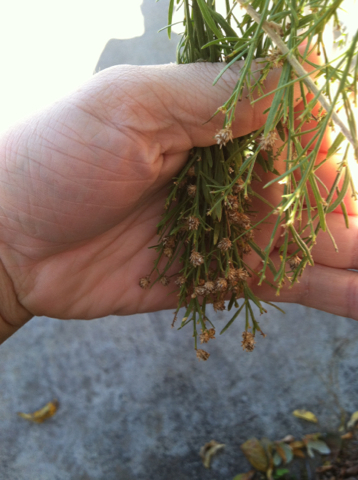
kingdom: Plantae
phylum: Tracheophyta
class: Magnoliopsida
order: Asterales
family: Asteraceae
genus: Baccharis
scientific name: Baccharis neglecta
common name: Roosevelt-weed
